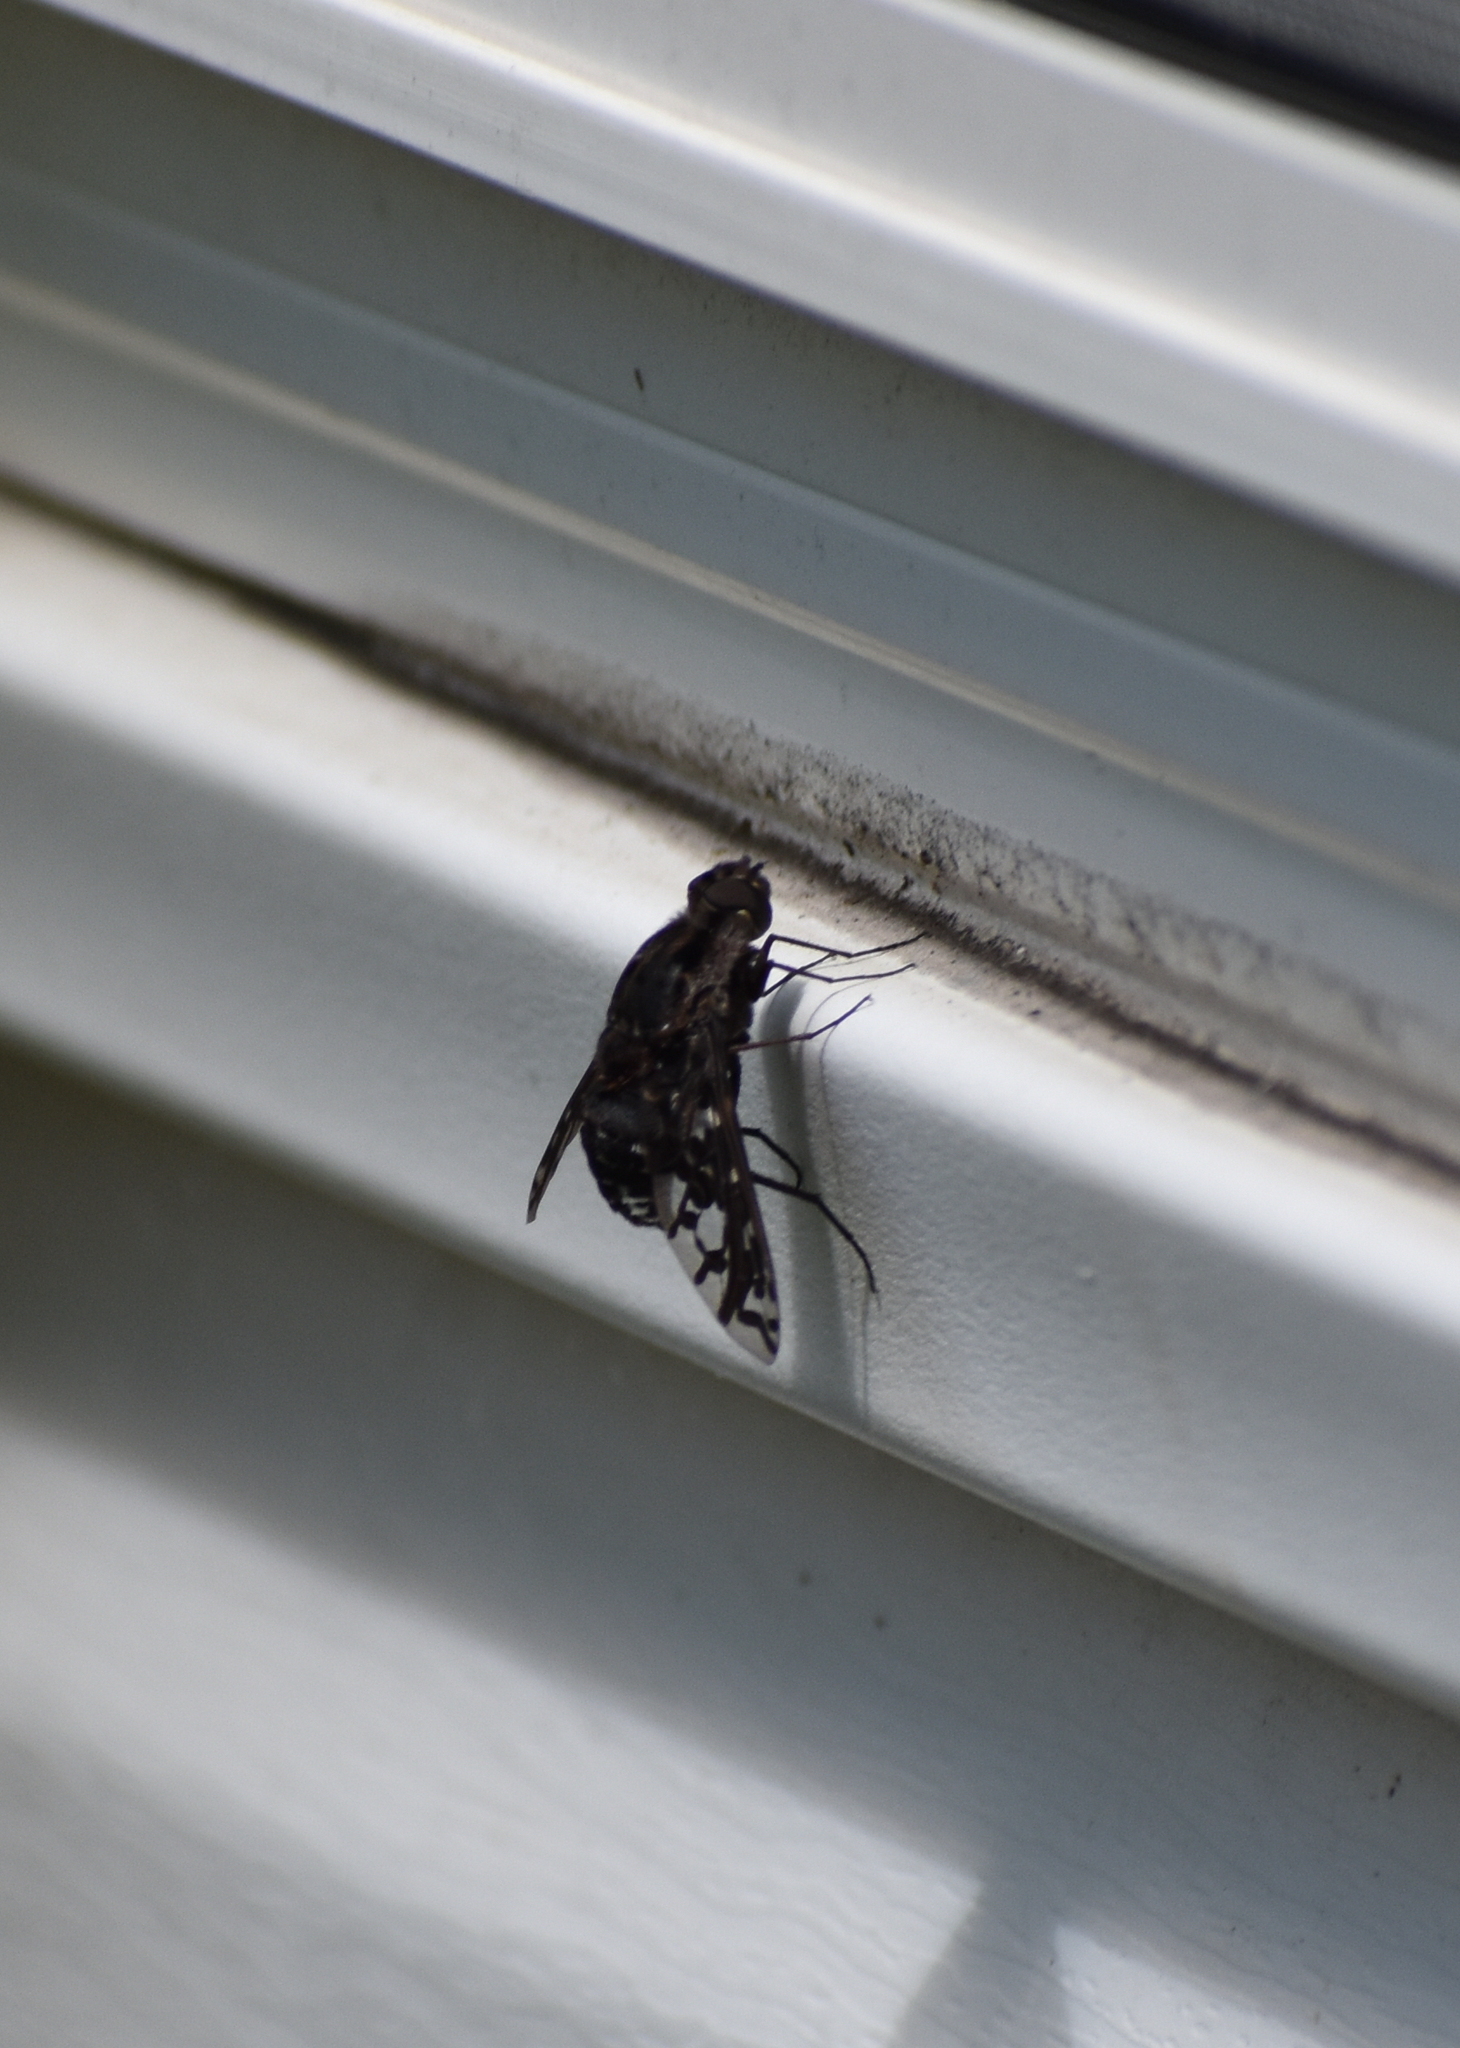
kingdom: Animalia
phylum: Arthropoda
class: Insecta
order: Diptera
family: Bombyliidae
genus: Xenox
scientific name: Xenox tigrinus
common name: Tiger bee fly
